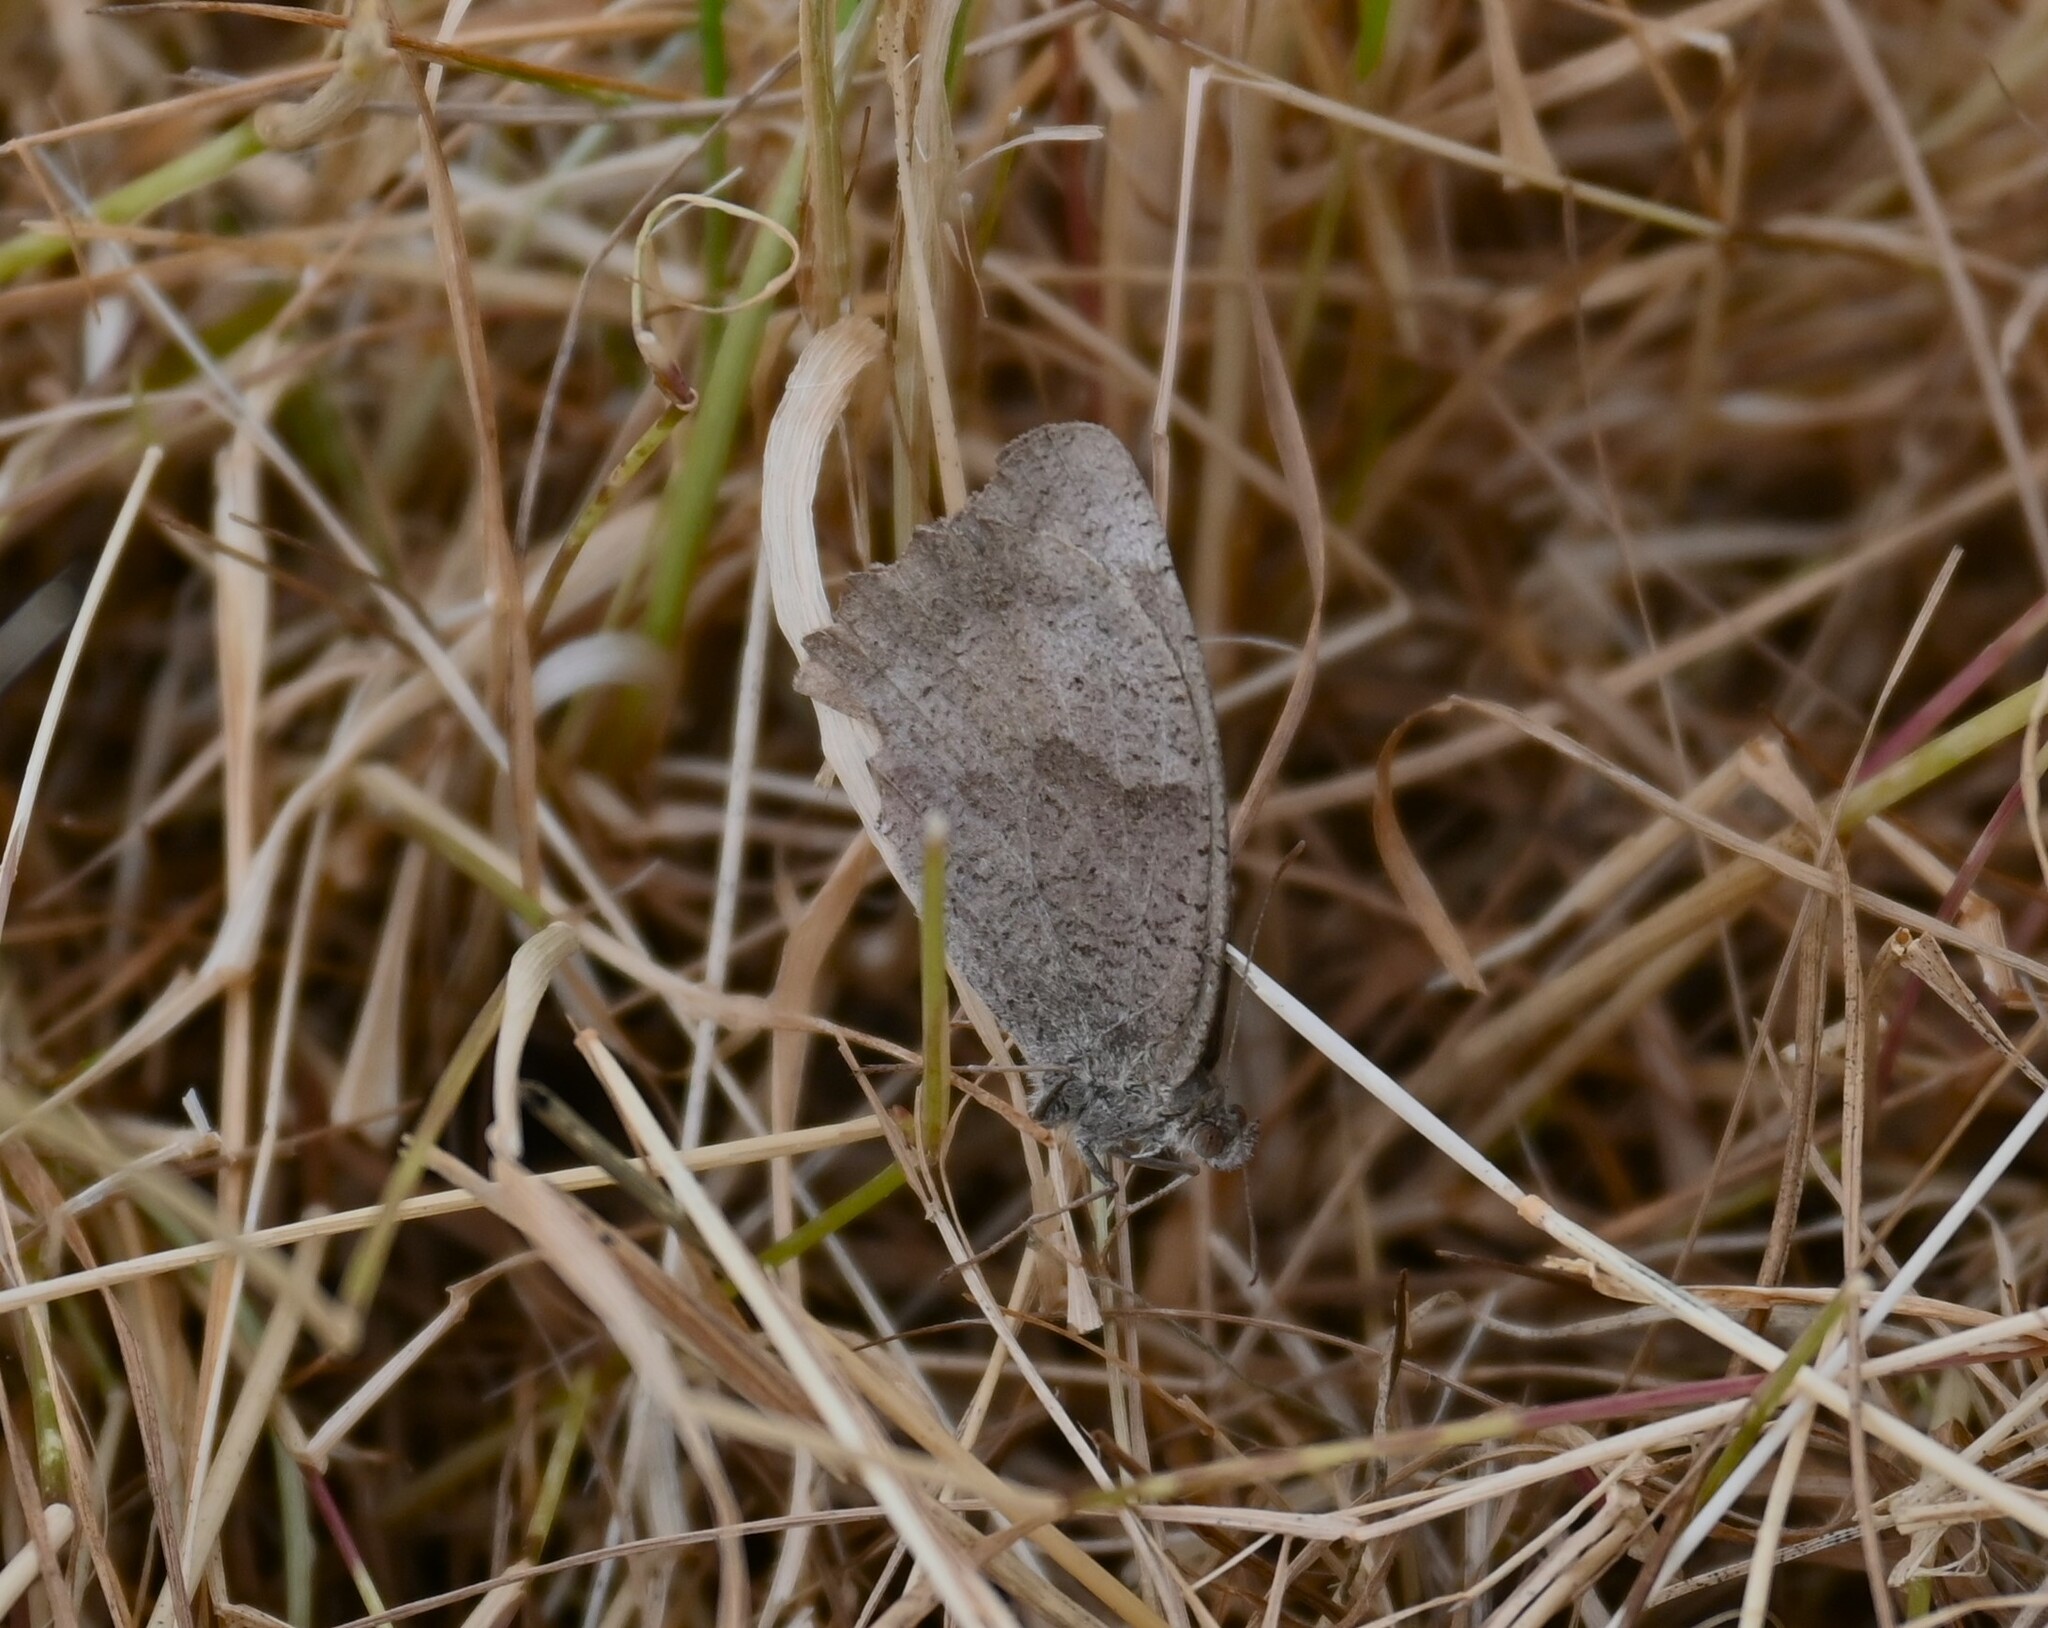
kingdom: Animalia
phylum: Arthropoda
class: Insecta
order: Lepidoptera
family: Nymphalidae
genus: Maniola
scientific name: Maniola jurtina
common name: Meadow brown
